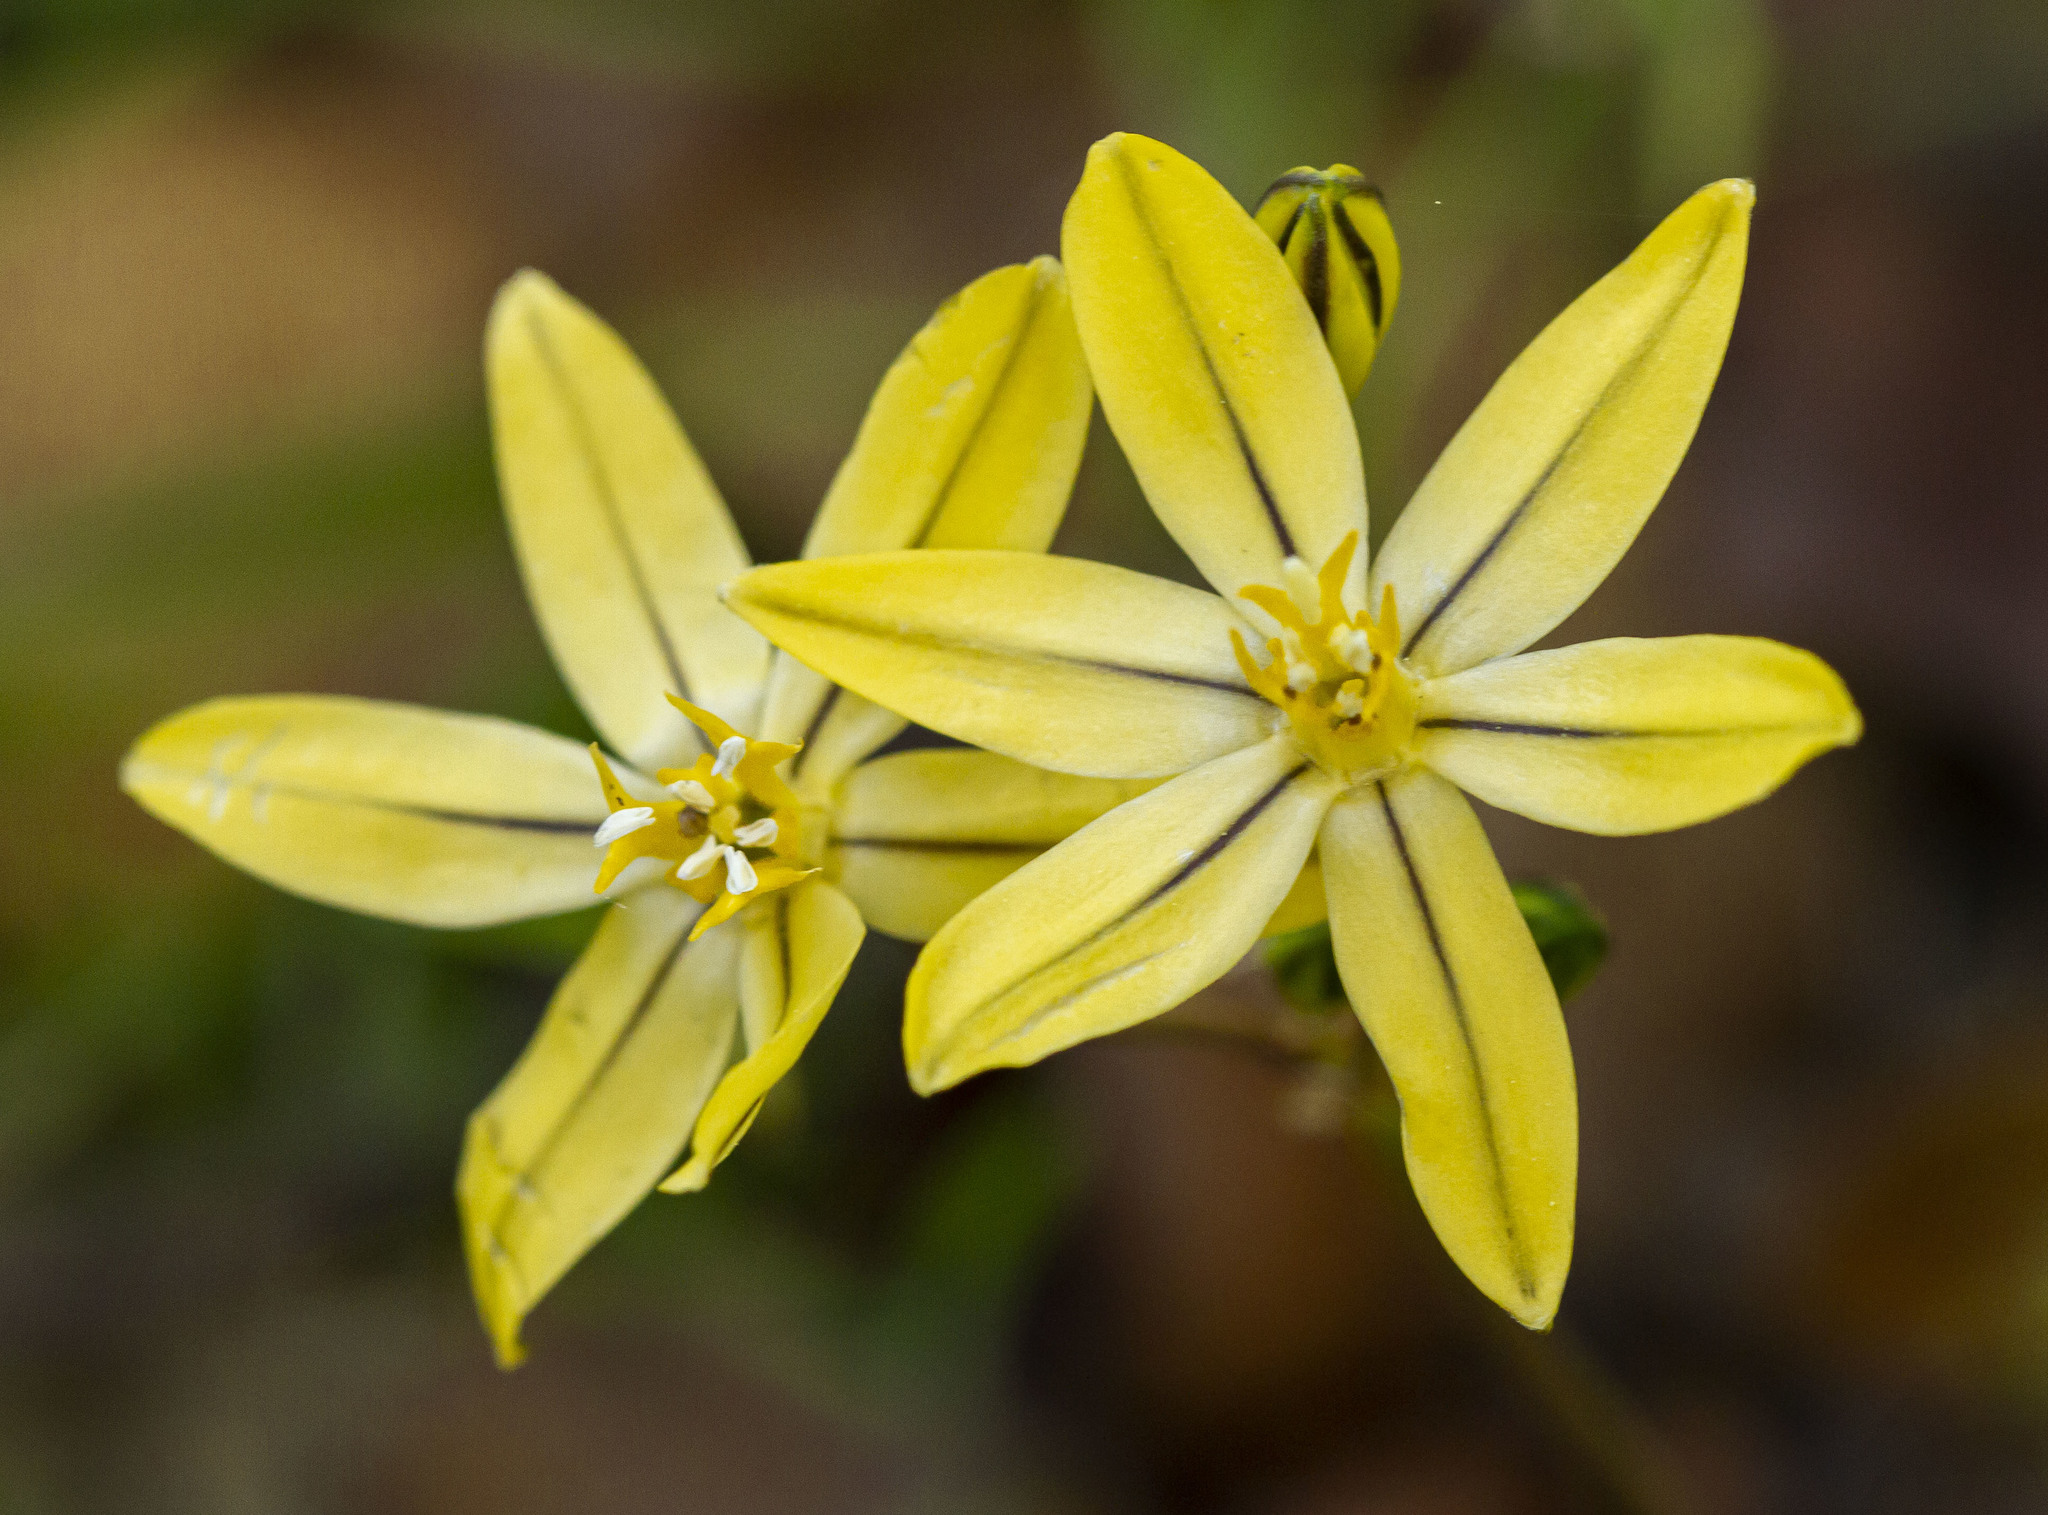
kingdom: Plantae
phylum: Tracheophyta
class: Liliopsida
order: Asparagales
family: Asparagaceae
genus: Triteleia
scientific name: Triteleia ixioides
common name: Yellow-brodiaea
